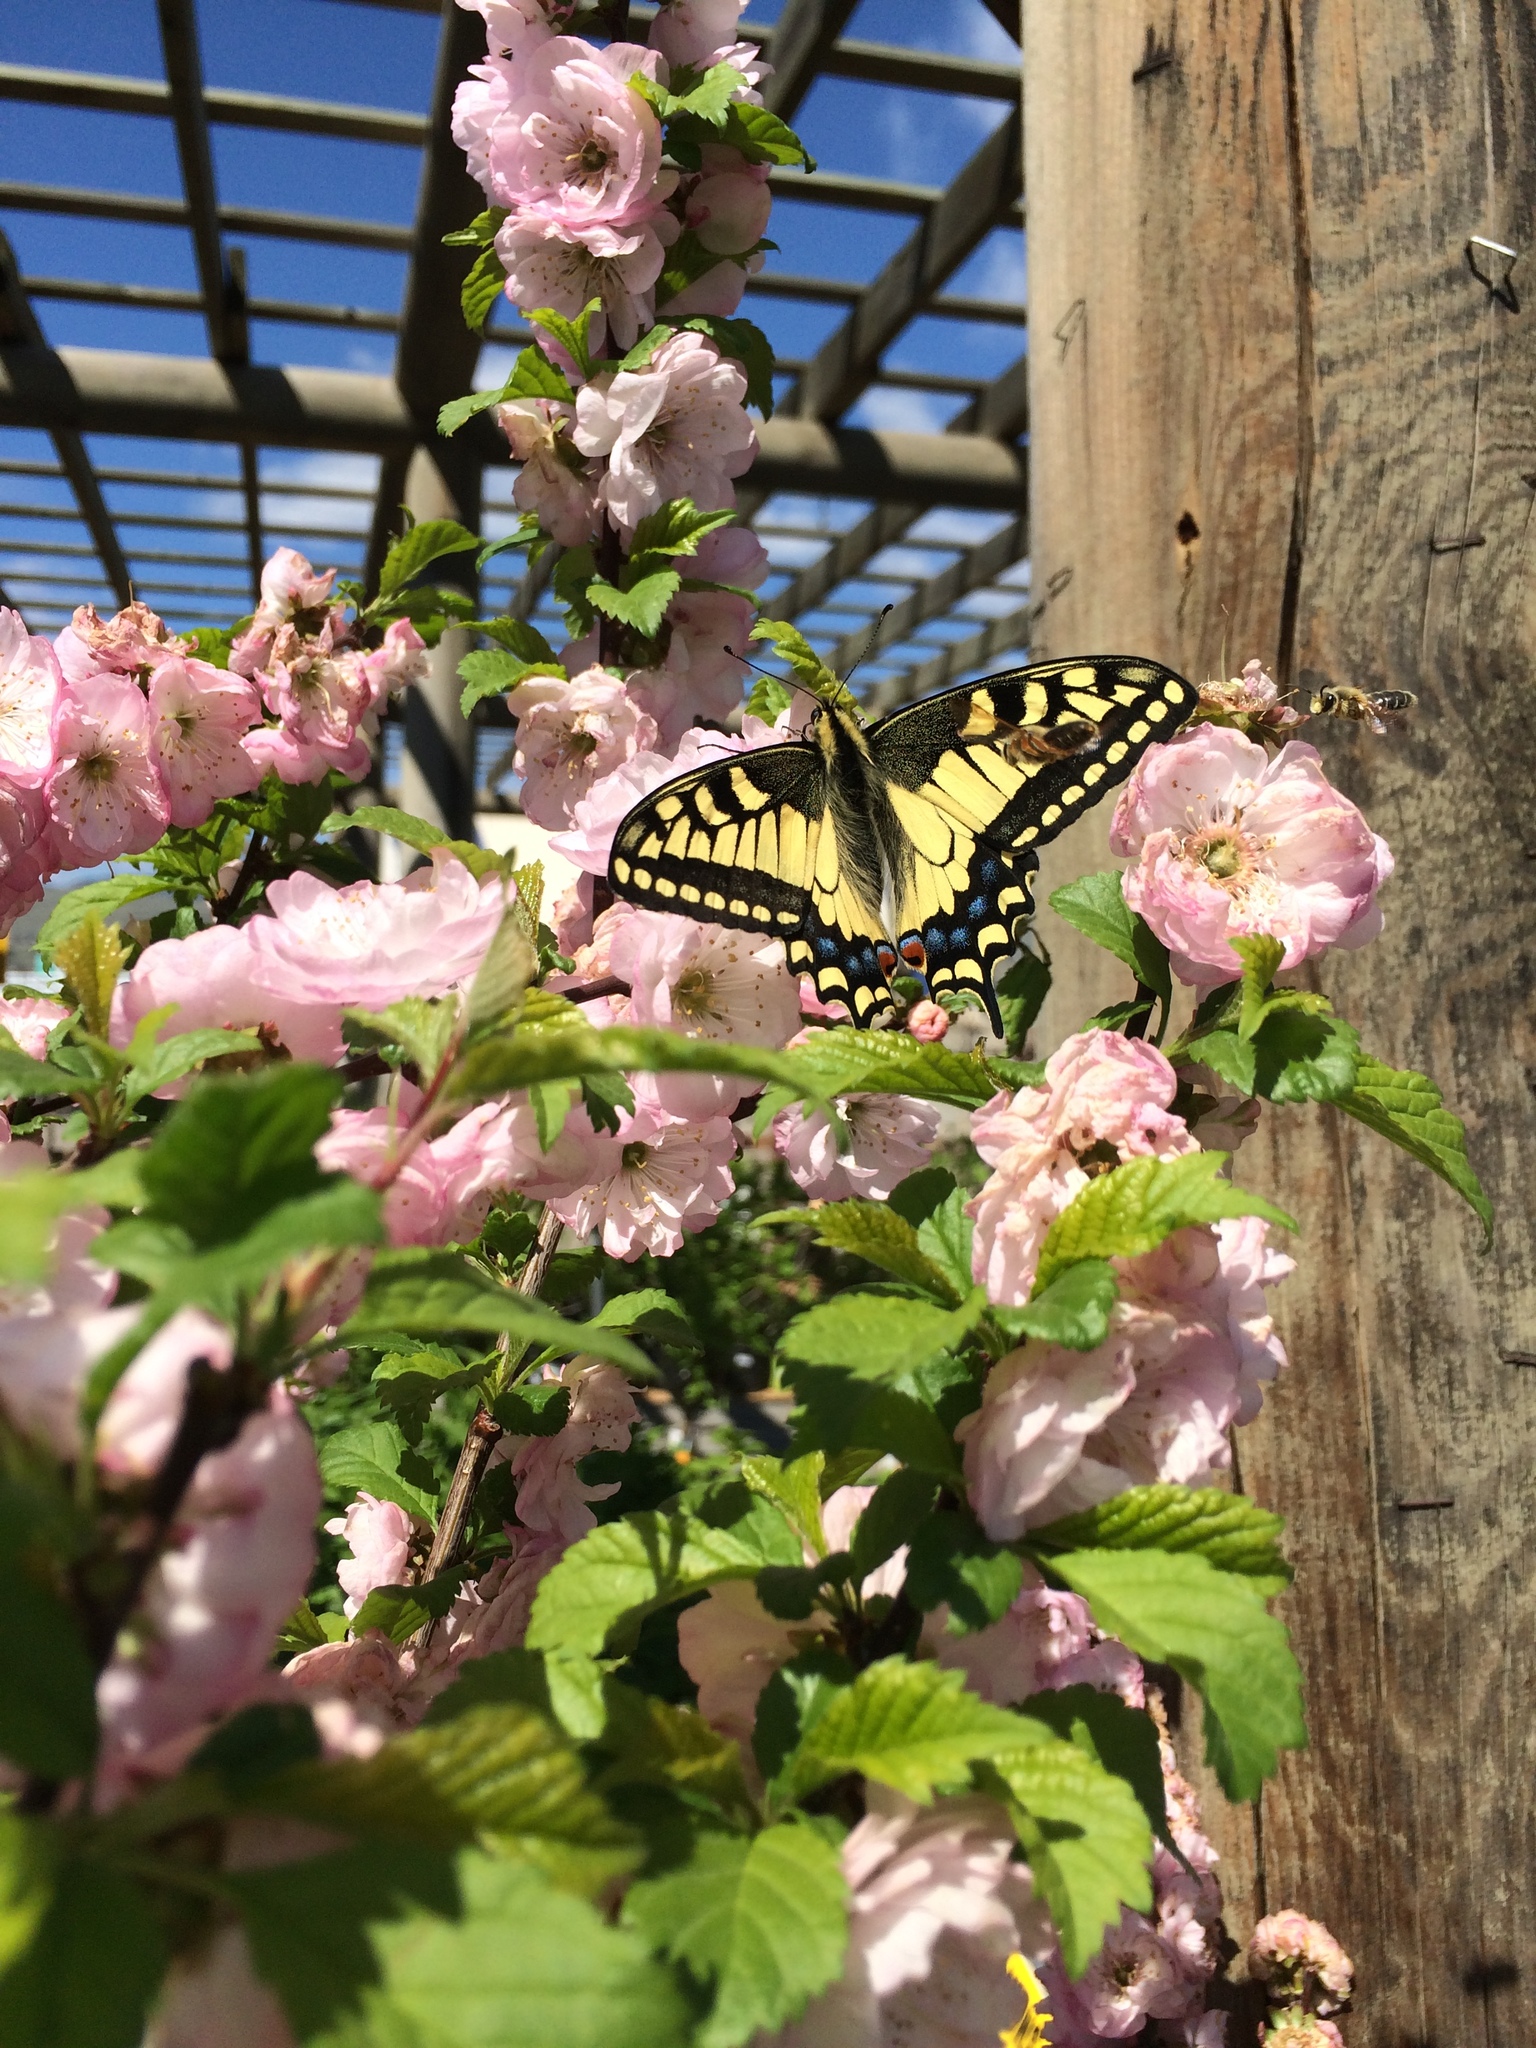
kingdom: Animalia
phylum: Arthropoda
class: Insecta
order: Lepidoptera
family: Papilionidae
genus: Papilio
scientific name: Papilio
